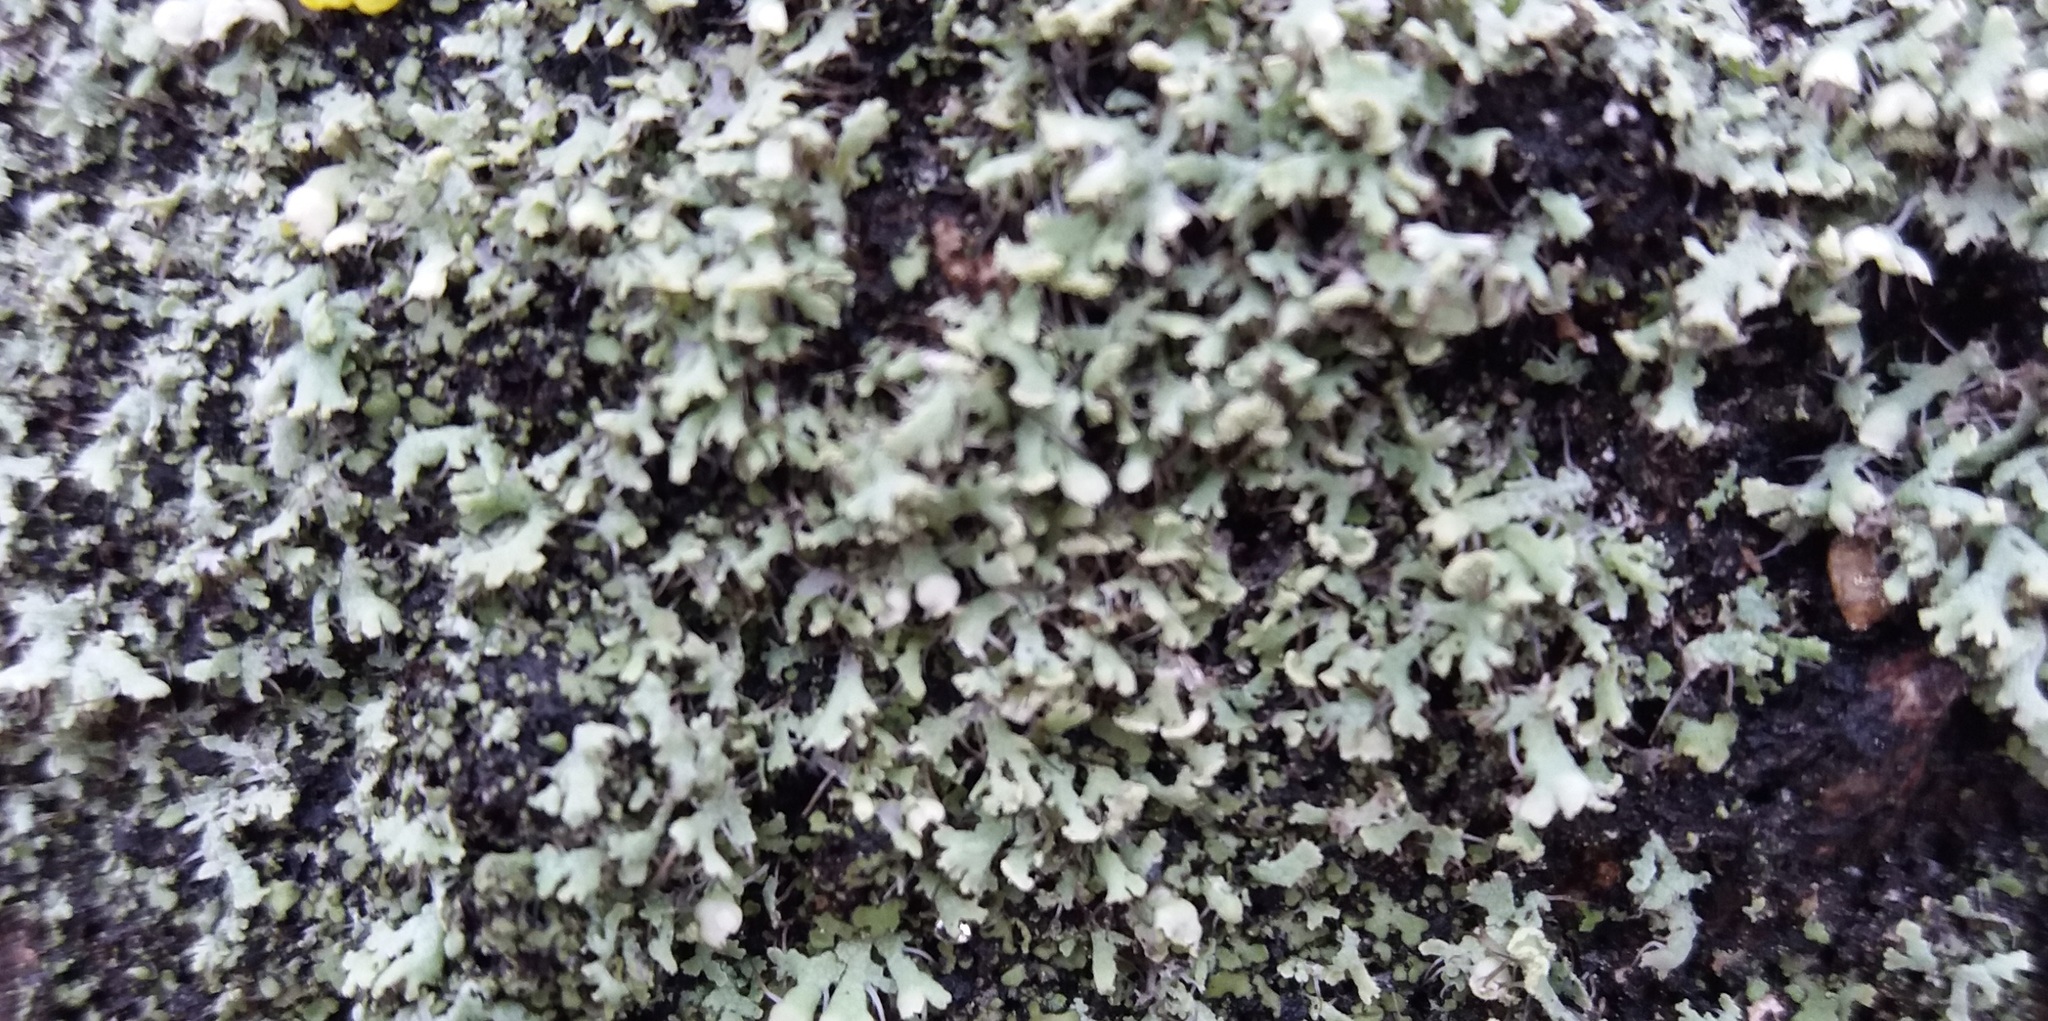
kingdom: Fungi
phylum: Ascomycota
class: Lecanoromycetes
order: Caliciales
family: Physciaceae
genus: Physcia
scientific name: Physcia
